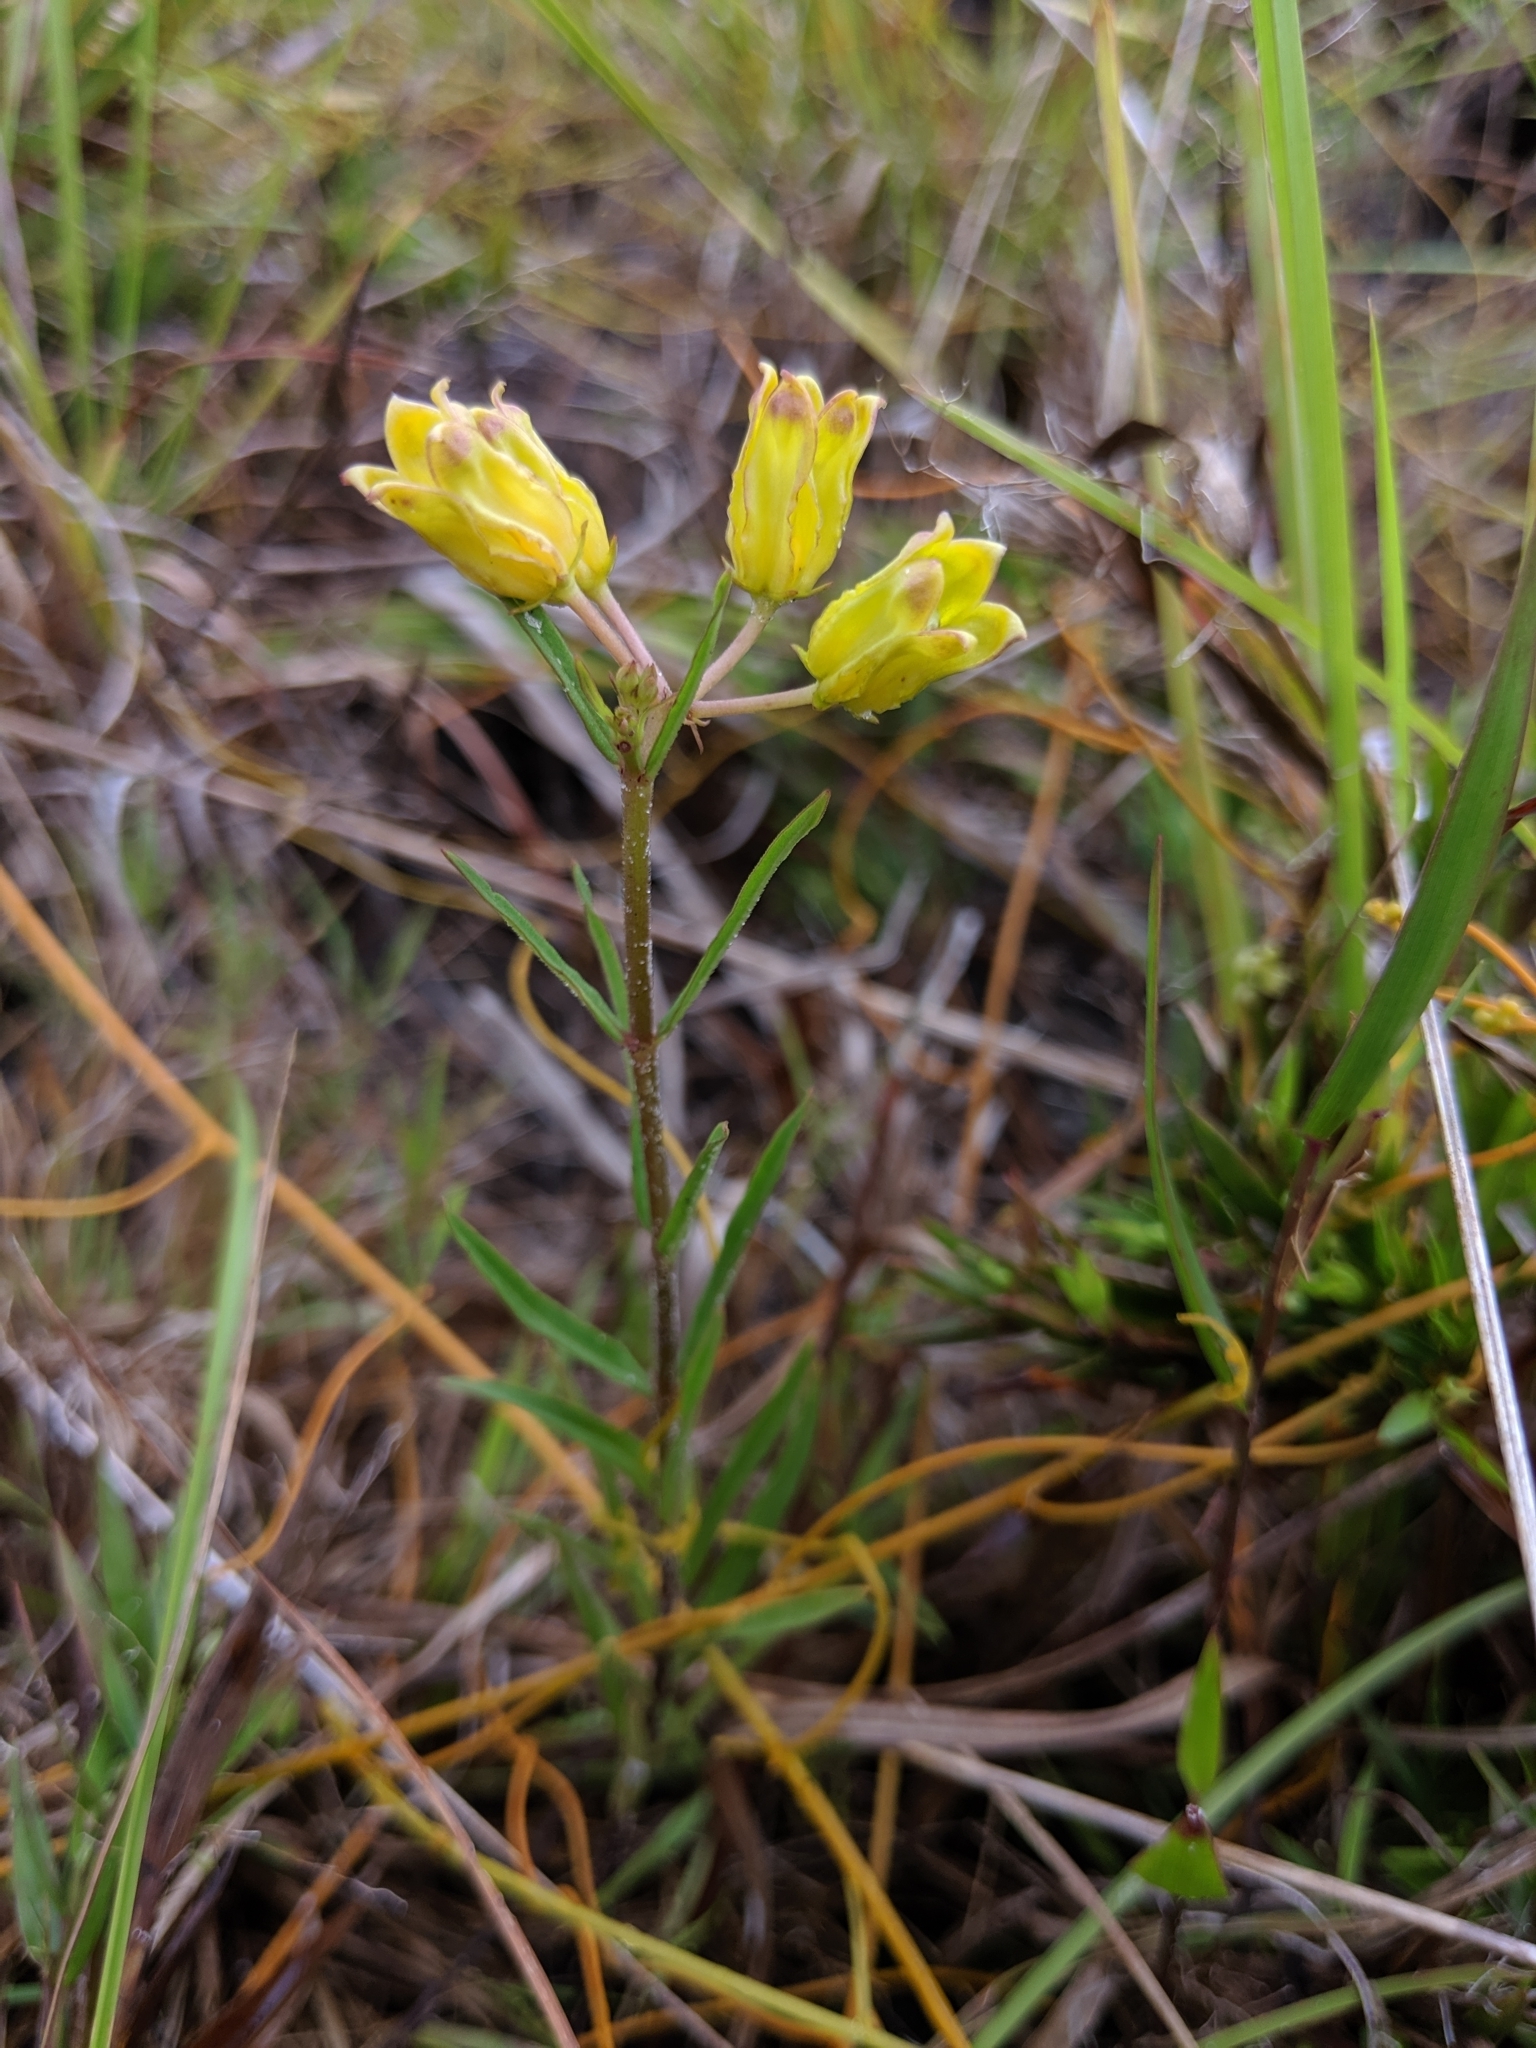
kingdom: Plantae
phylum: Tracheophyta
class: Magnoliopsida
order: Gentianales
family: Apocynaceae
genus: Asclepias
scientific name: Asclepias pedicellata
